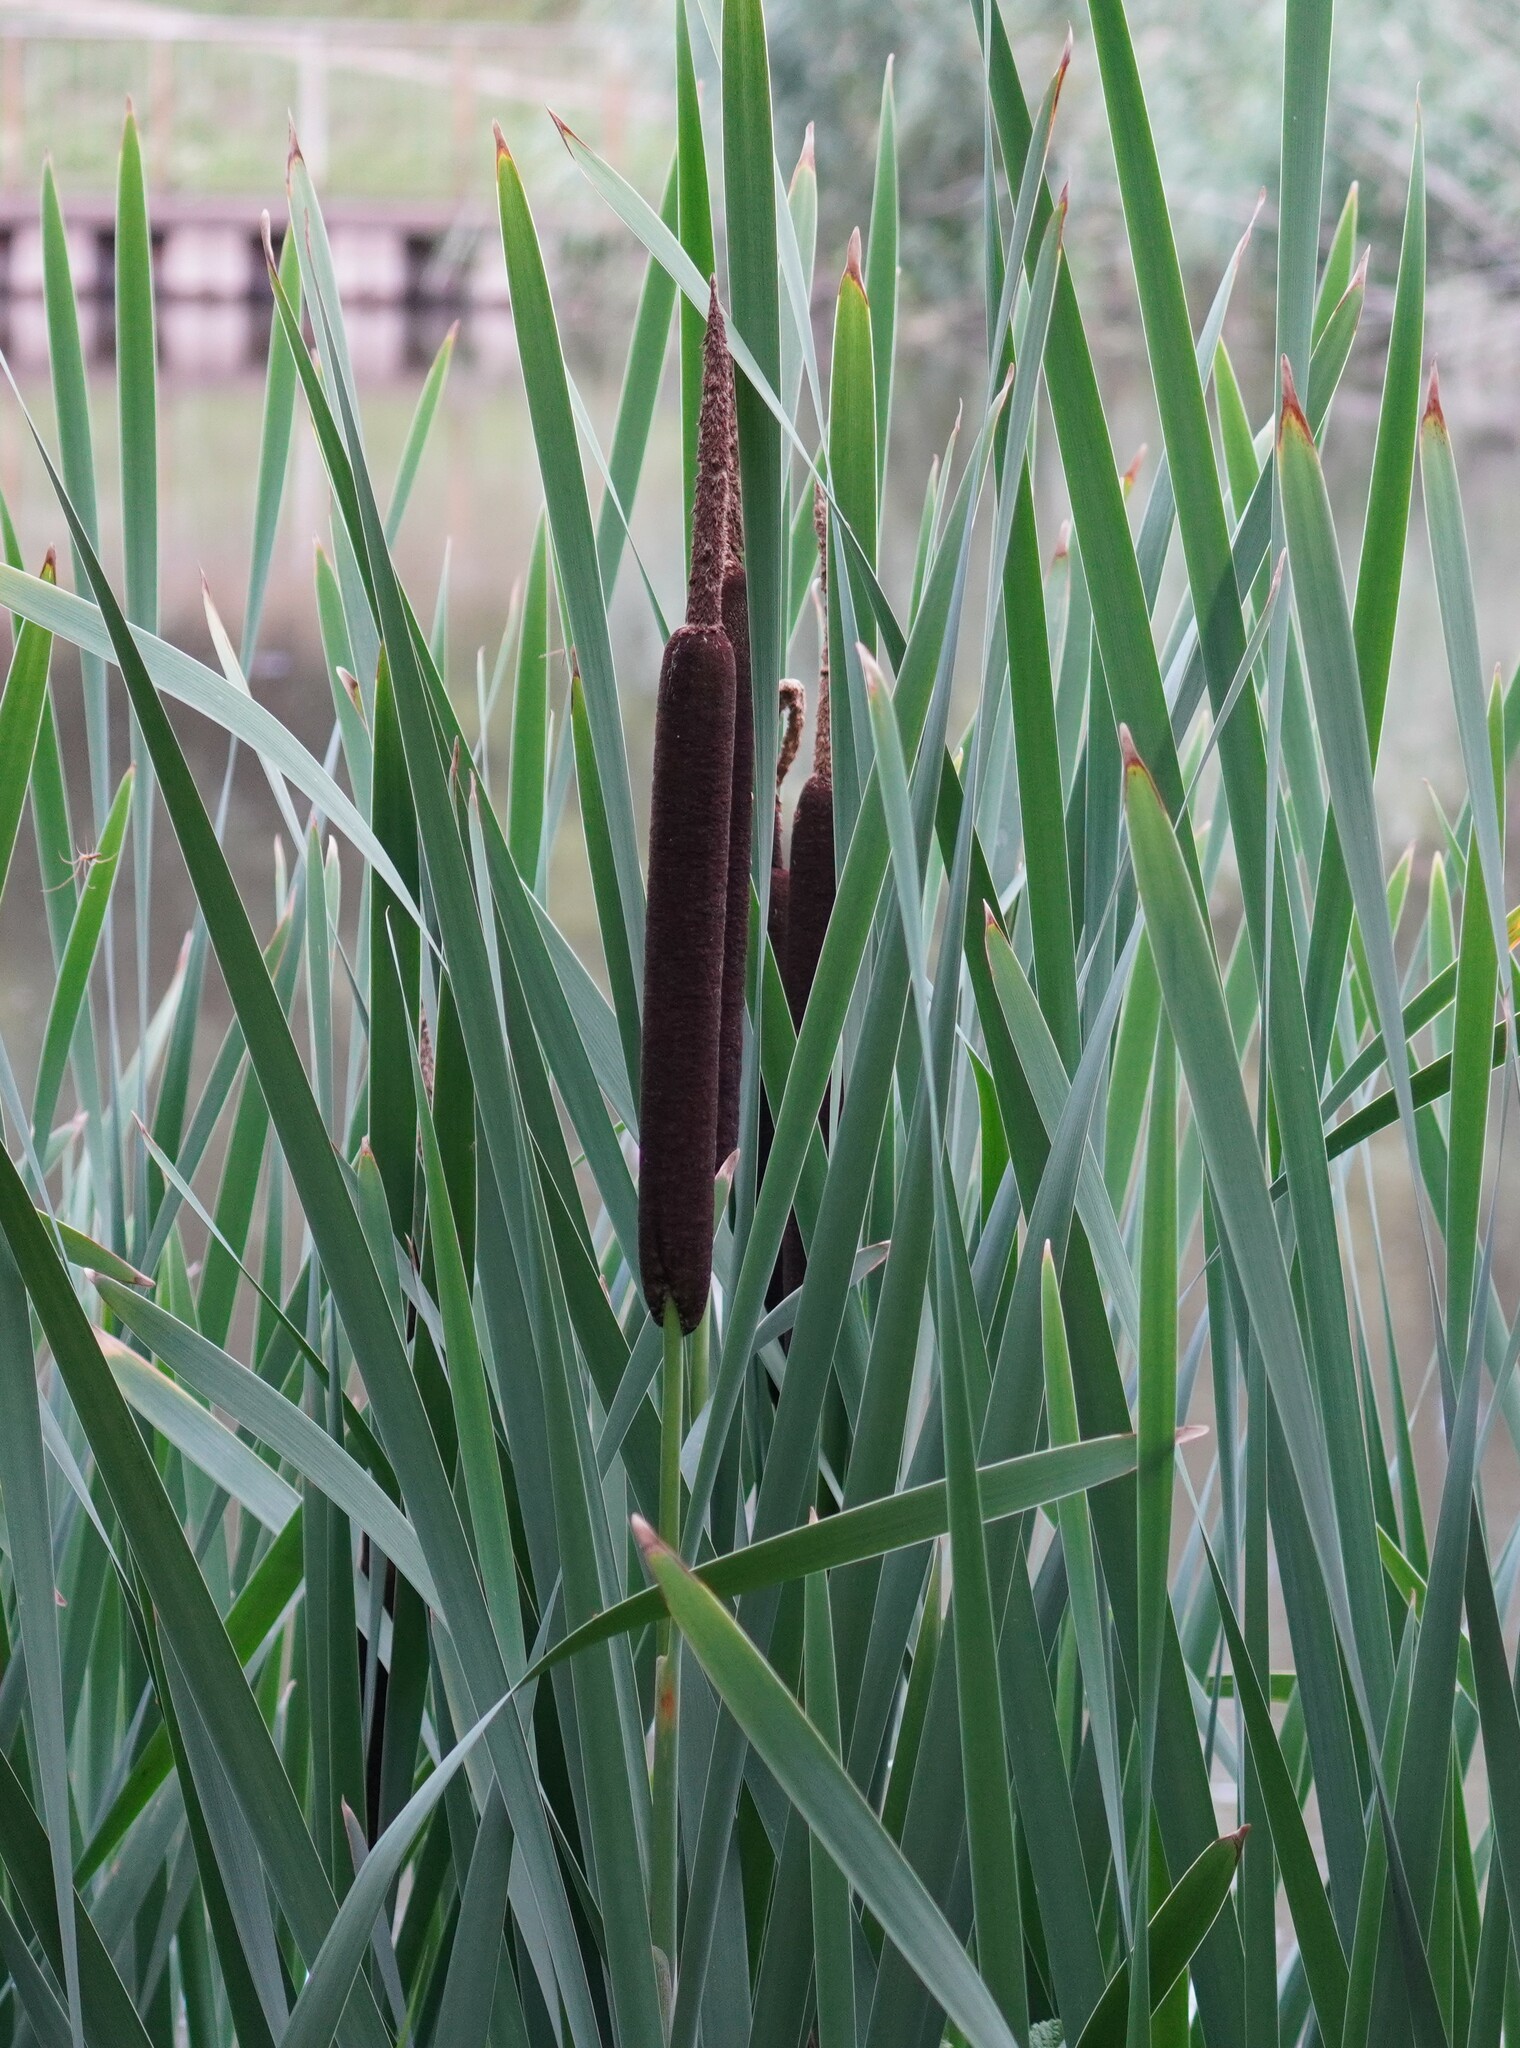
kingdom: Plantae
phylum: Tracheophyta
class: Liliopsida
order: Poales
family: Typhaceae
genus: Typha
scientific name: Typha latifolia
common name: Broadleaf cattail
